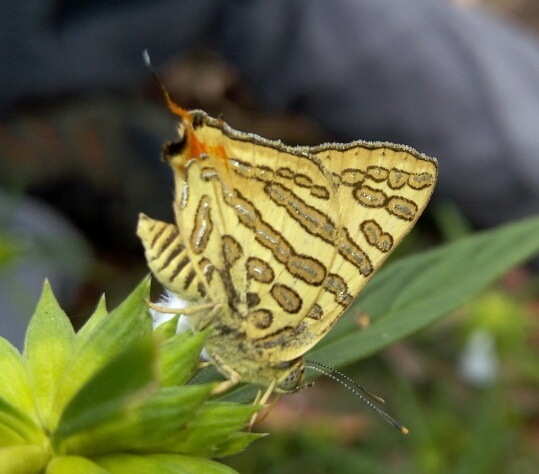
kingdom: Animalia
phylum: Arthropoda
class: Insecta
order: Lepidoptera
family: Lycaenidae
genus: Cigaritis
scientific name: Cigaritis
